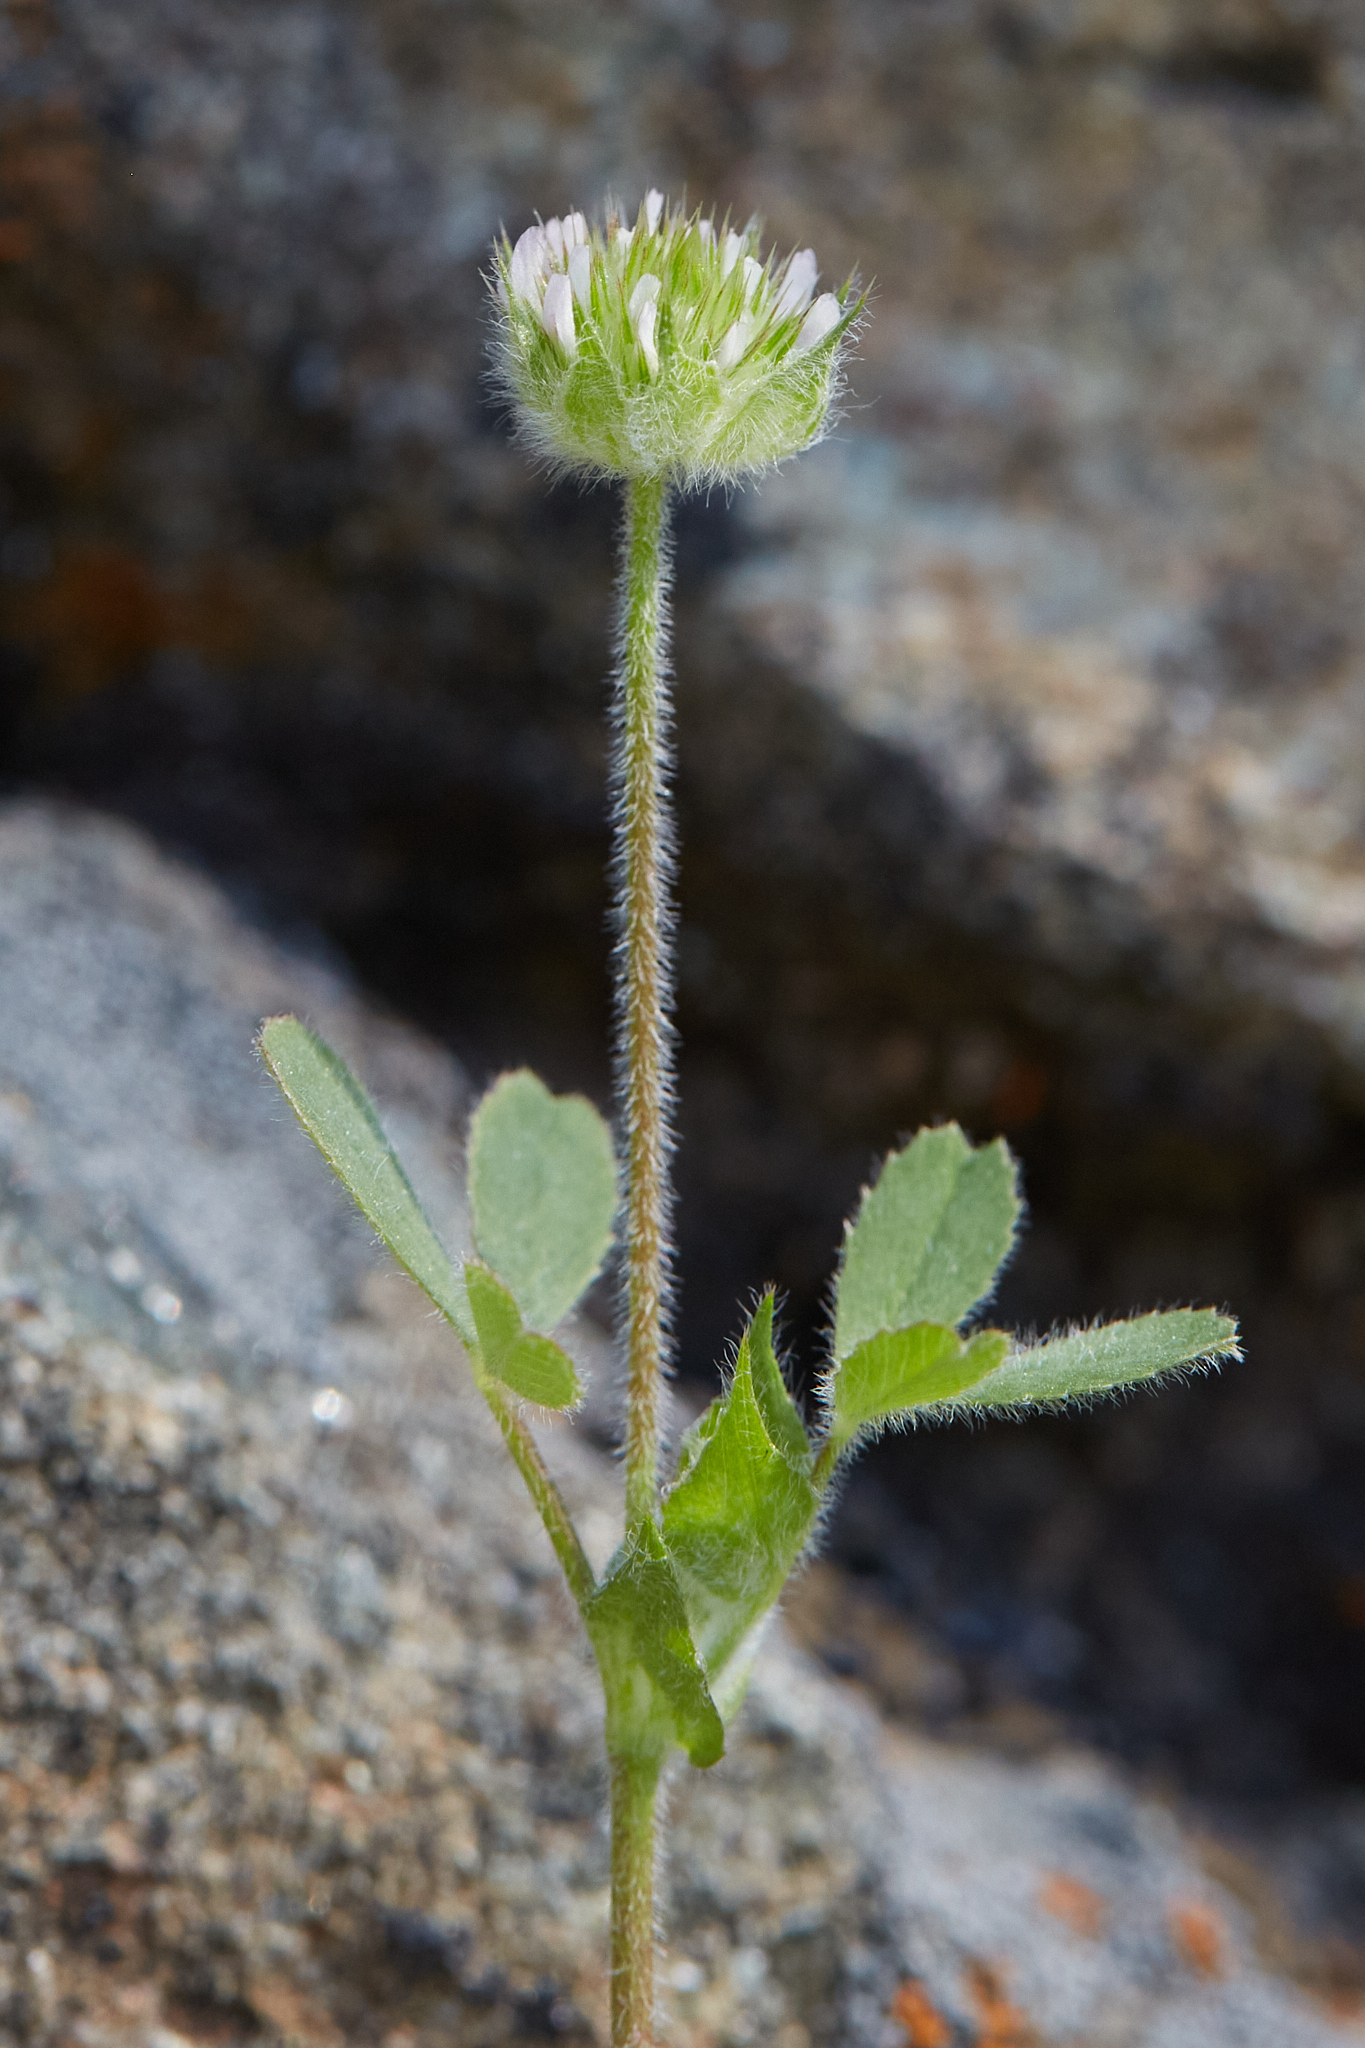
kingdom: Plantae
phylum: Tracheophyta
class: Magnoliopsida
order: Fabales
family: Fabaceae
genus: Trifolium
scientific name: Trifolium microcephalum
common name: Maiden clover
